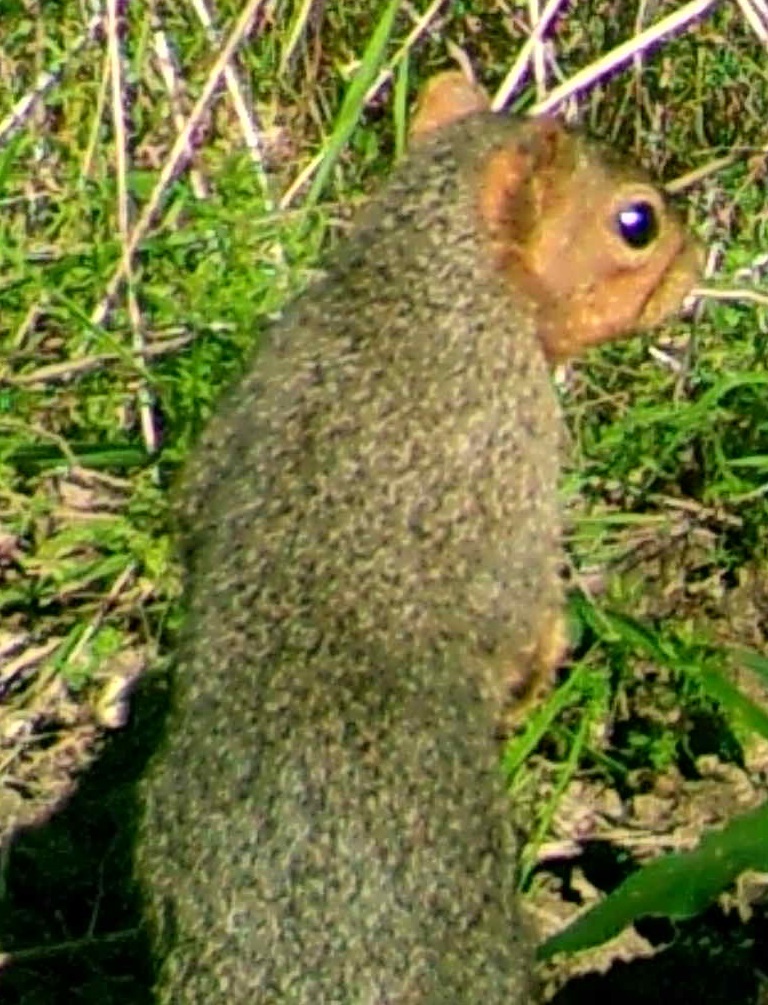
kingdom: Animalia
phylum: Chordata
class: Mammalia
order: Rodentia
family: Sciuridae
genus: Sciurus
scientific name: Sciurus niger
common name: Fox squirrel
